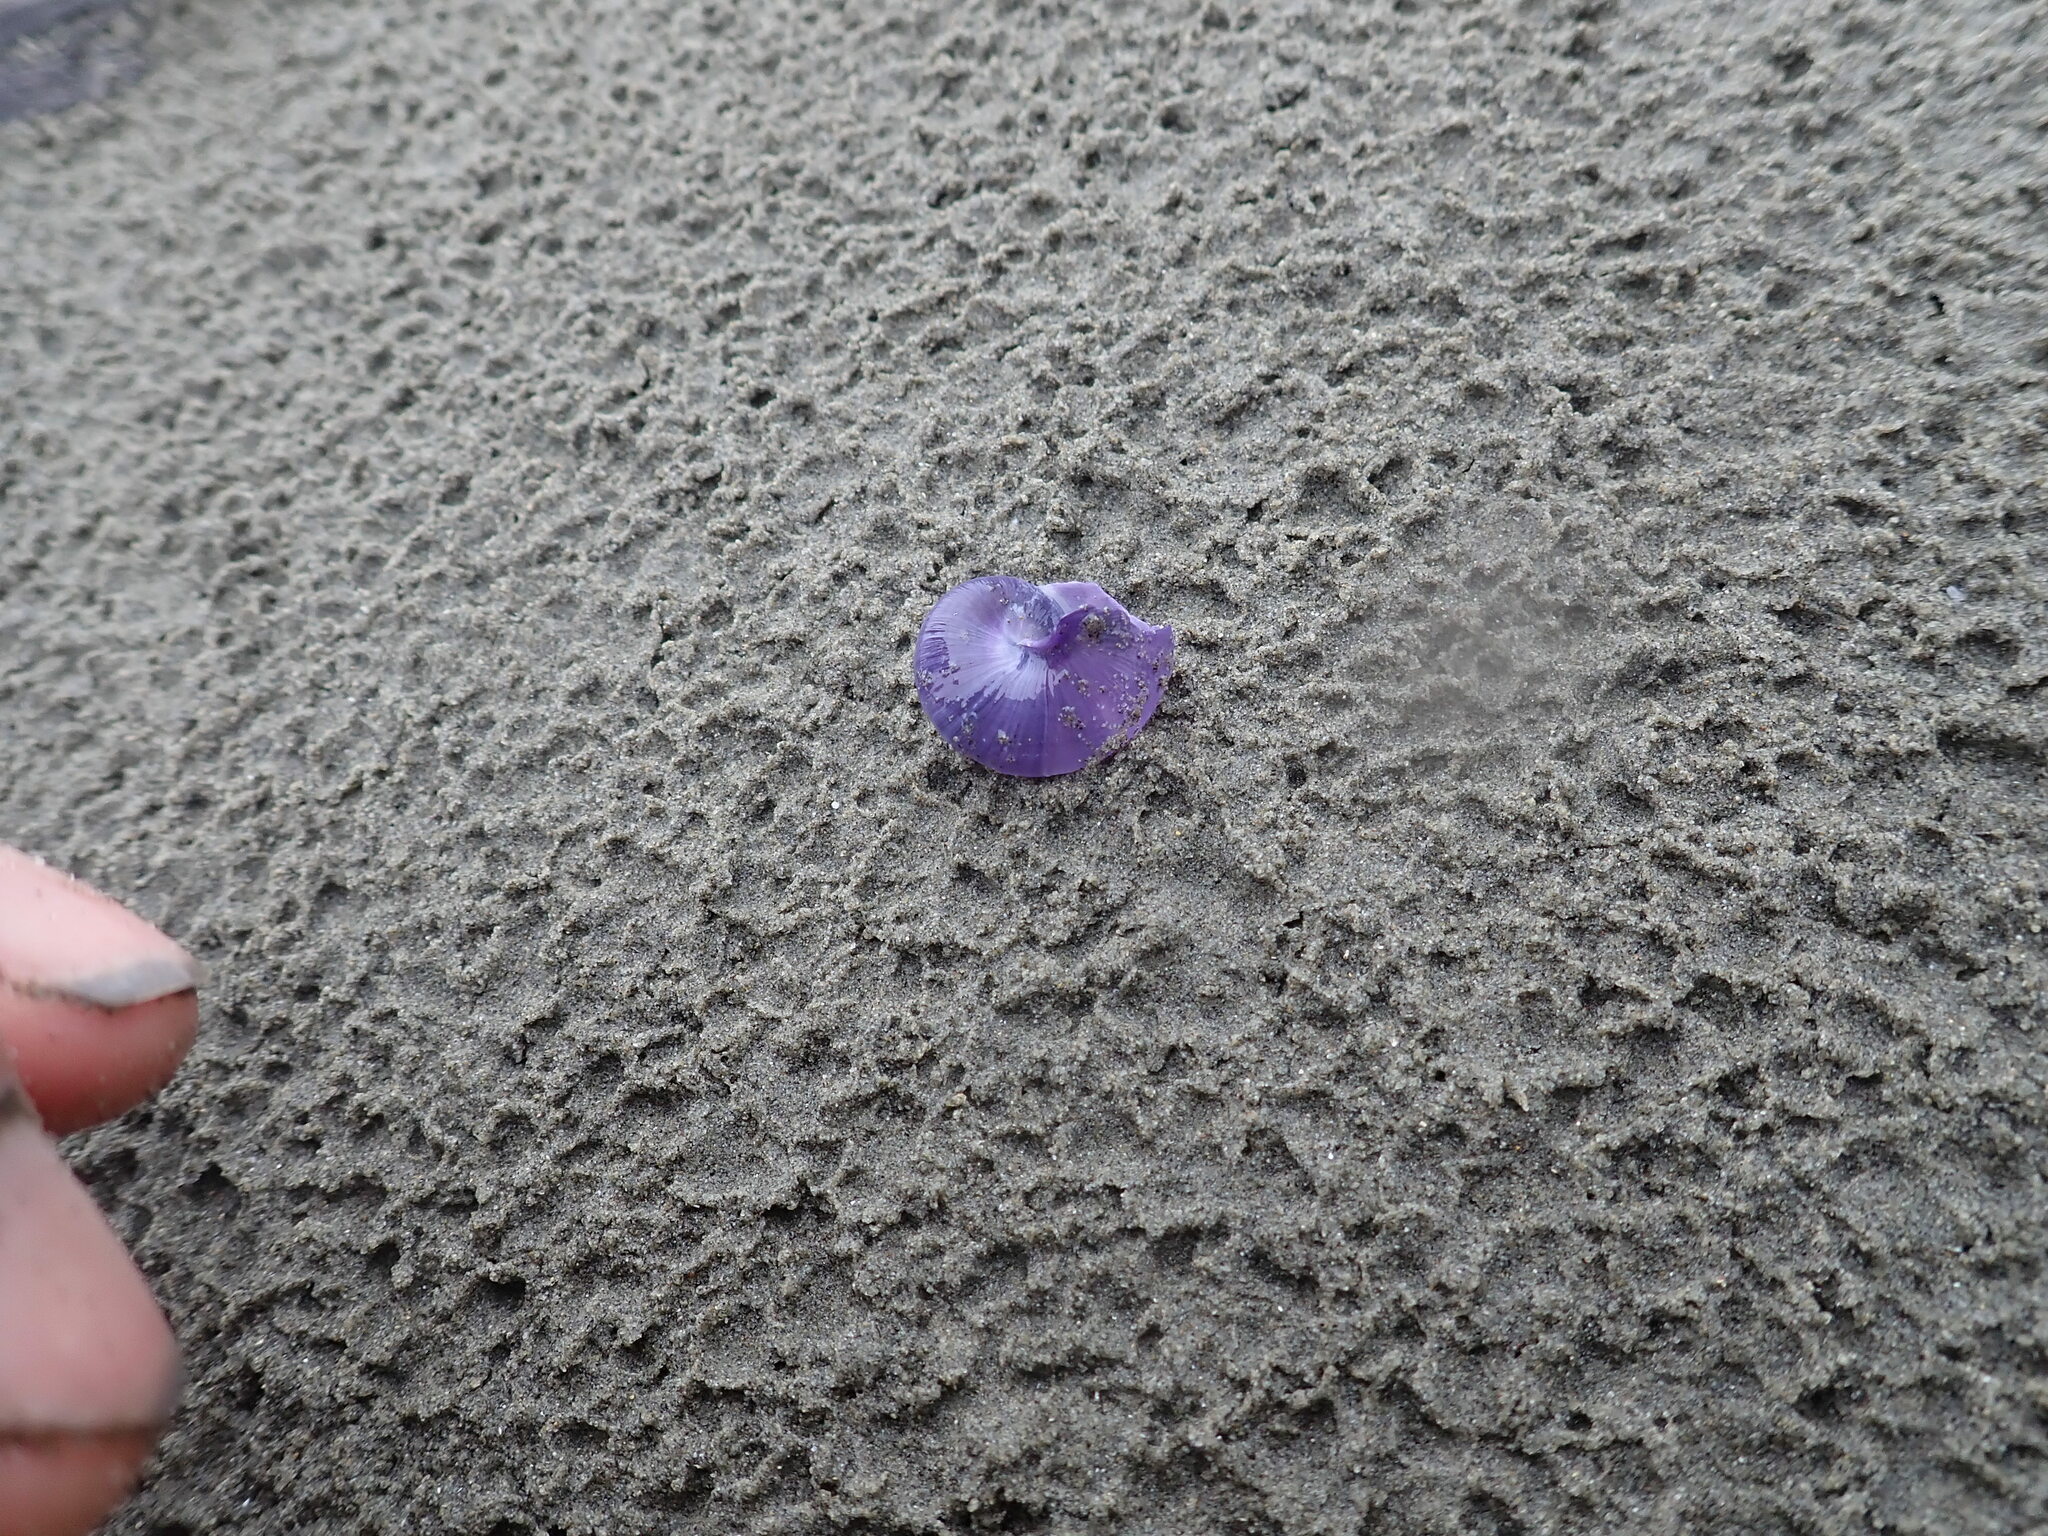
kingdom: Animalia
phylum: Mollusca
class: Gastropoda
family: Epitoniidae
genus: Janthina
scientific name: Janthina janthina
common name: Common janthina
